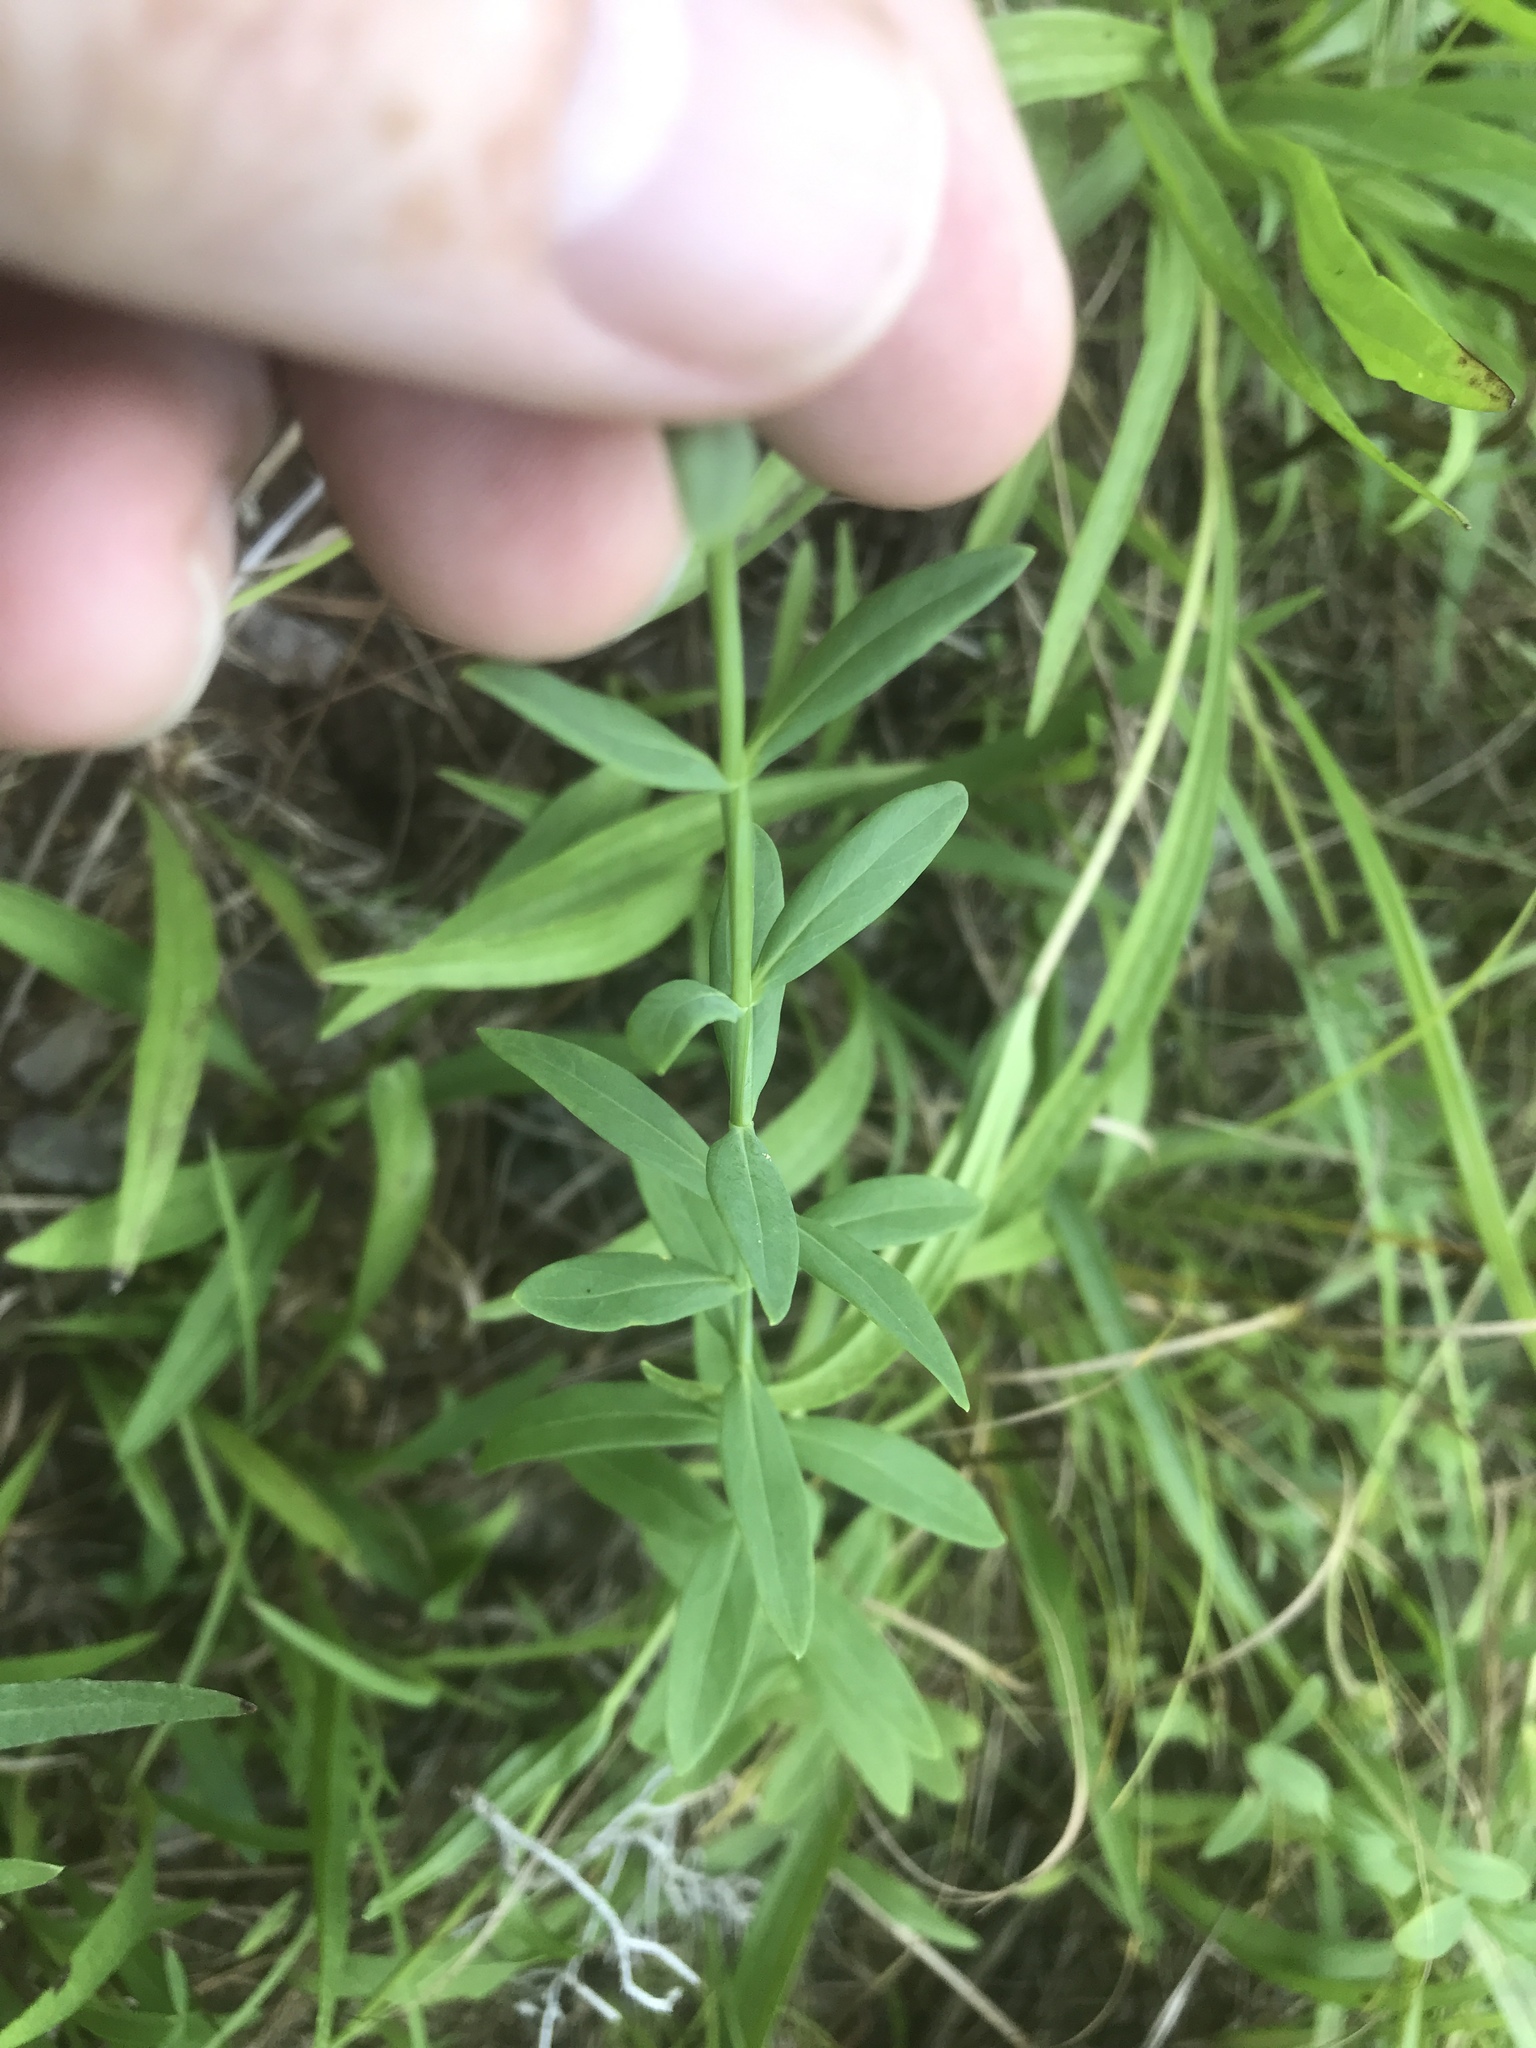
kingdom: Plantae
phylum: Tracheophyta
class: Magnoliopsida
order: Malpighiales
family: Hypericaceae
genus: Hypericum
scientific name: Hypericum virgatum
